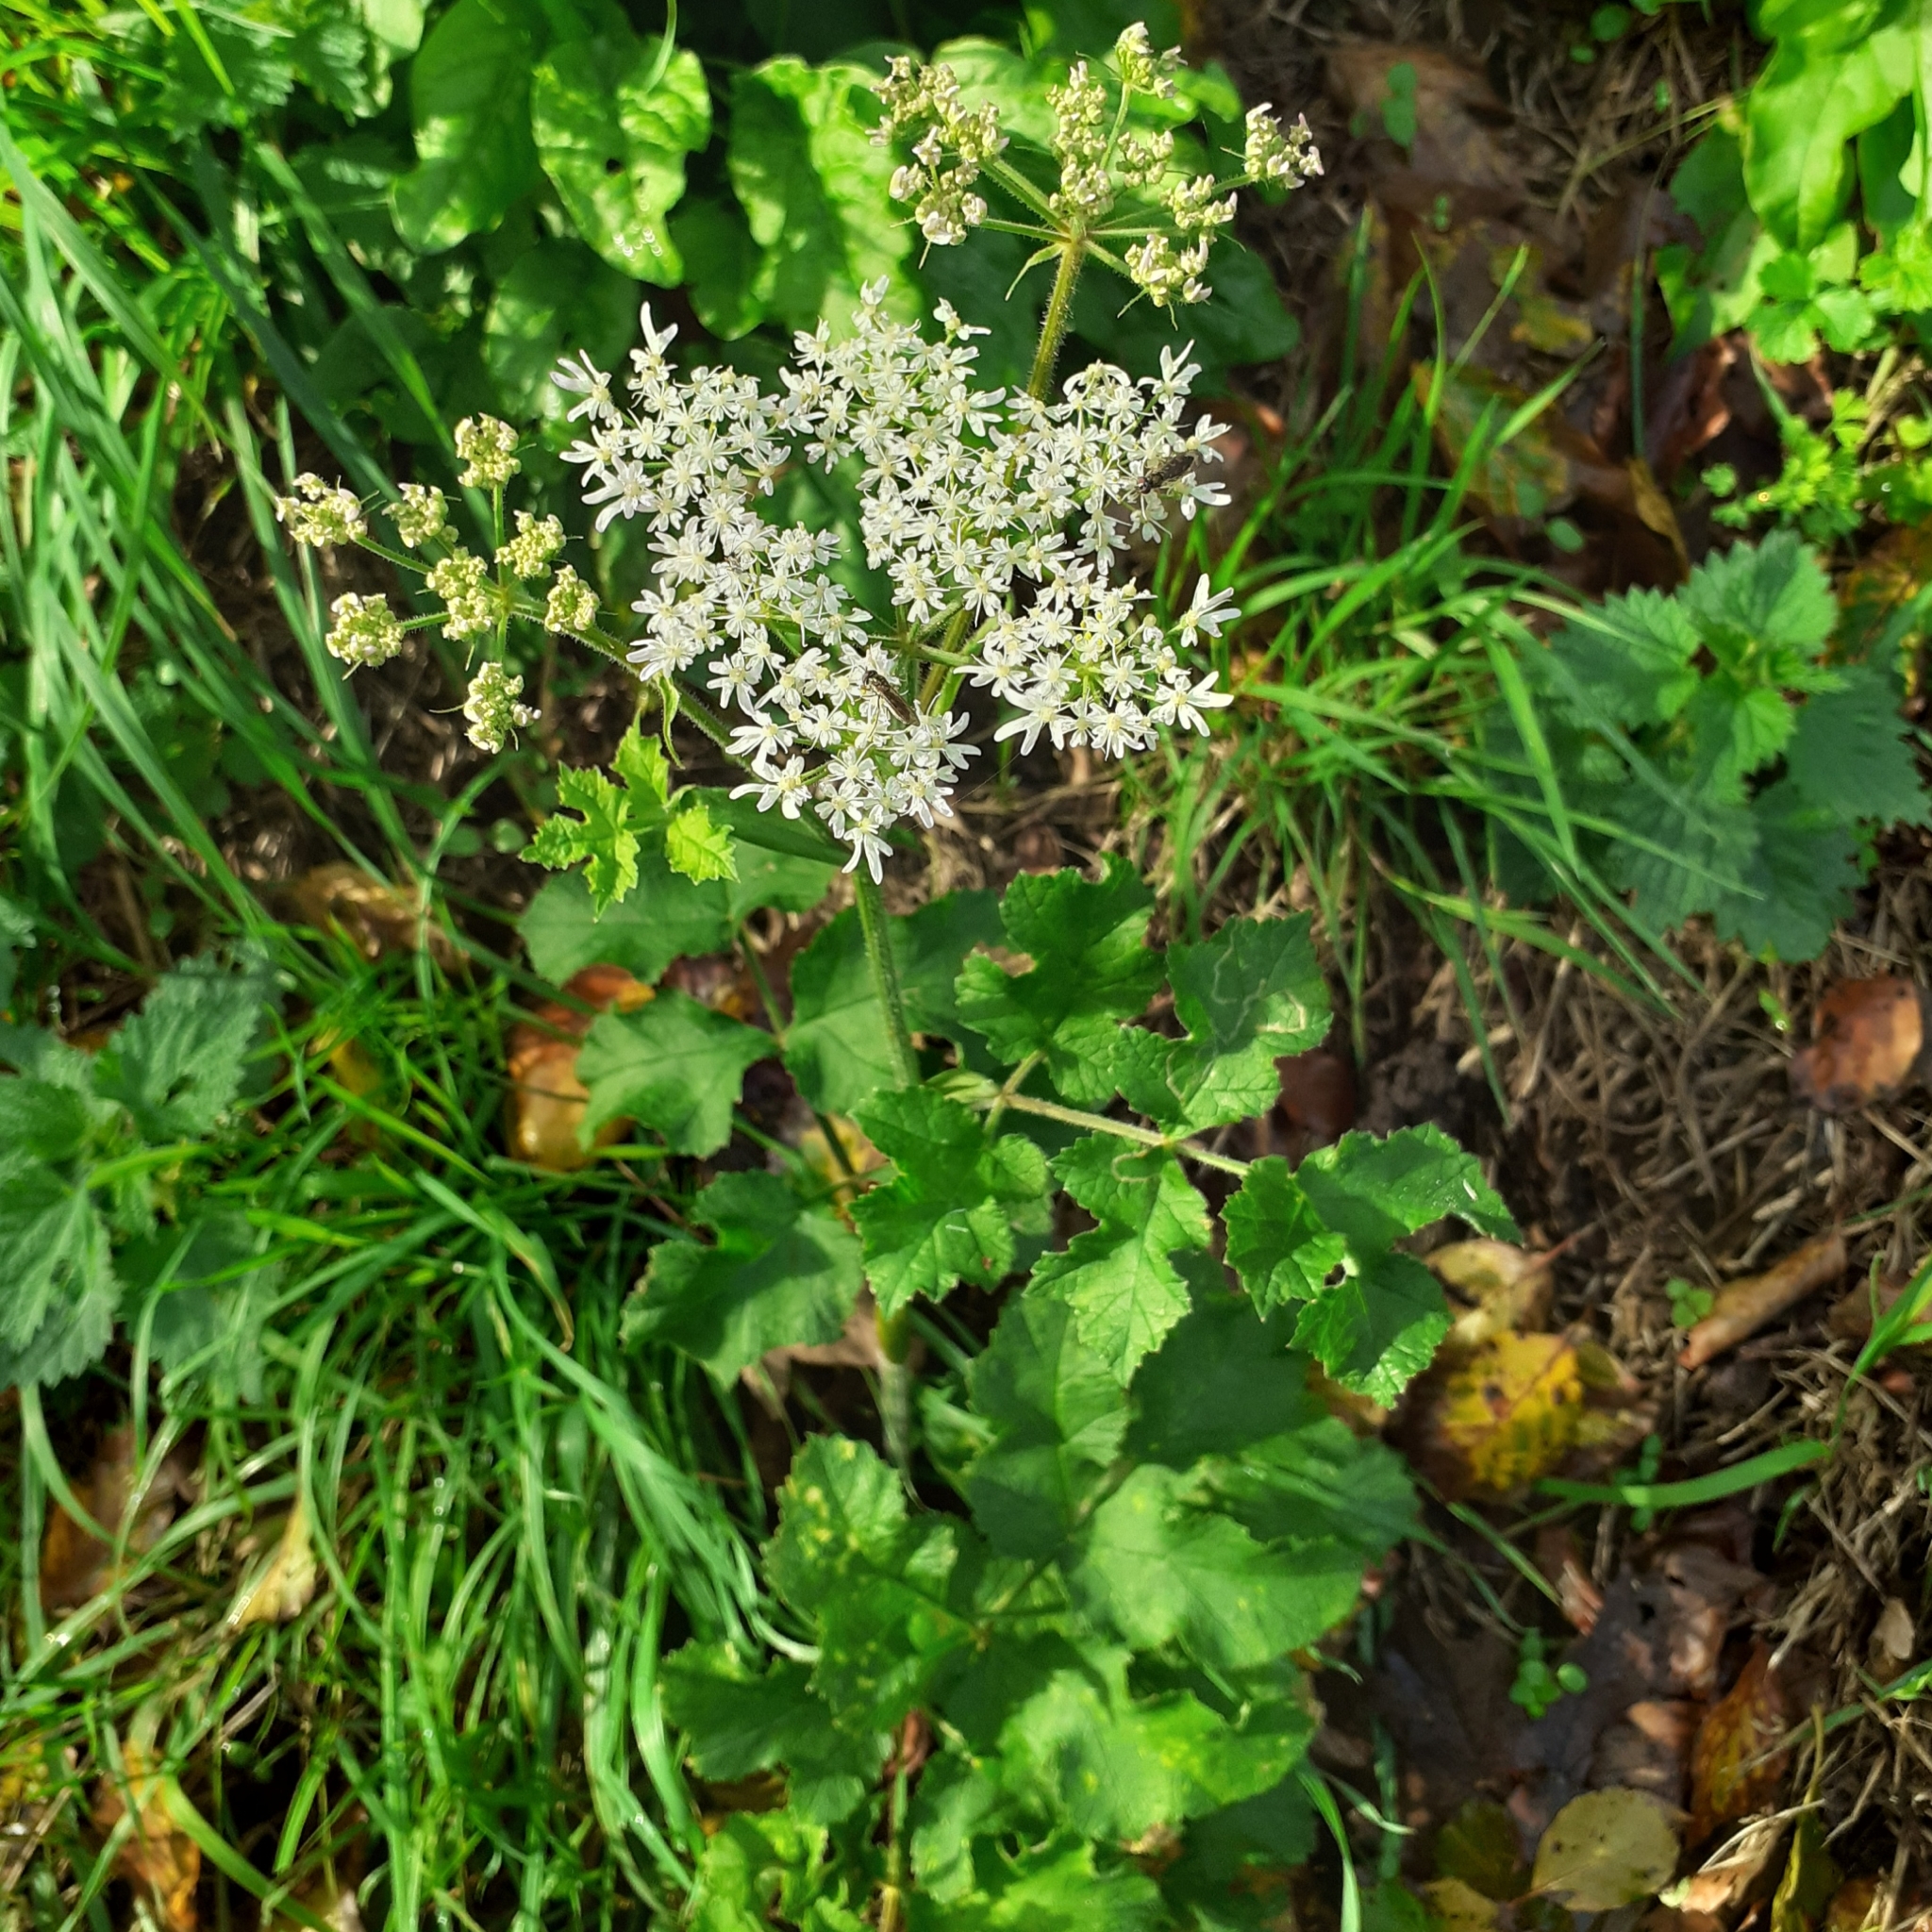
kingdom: Plantae
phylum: Tracheophyta
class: Magnoliopsida
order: Apiales
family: Apiaceae
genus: Heracleum
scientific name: Heracleum sphondylium
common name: Hogweed
